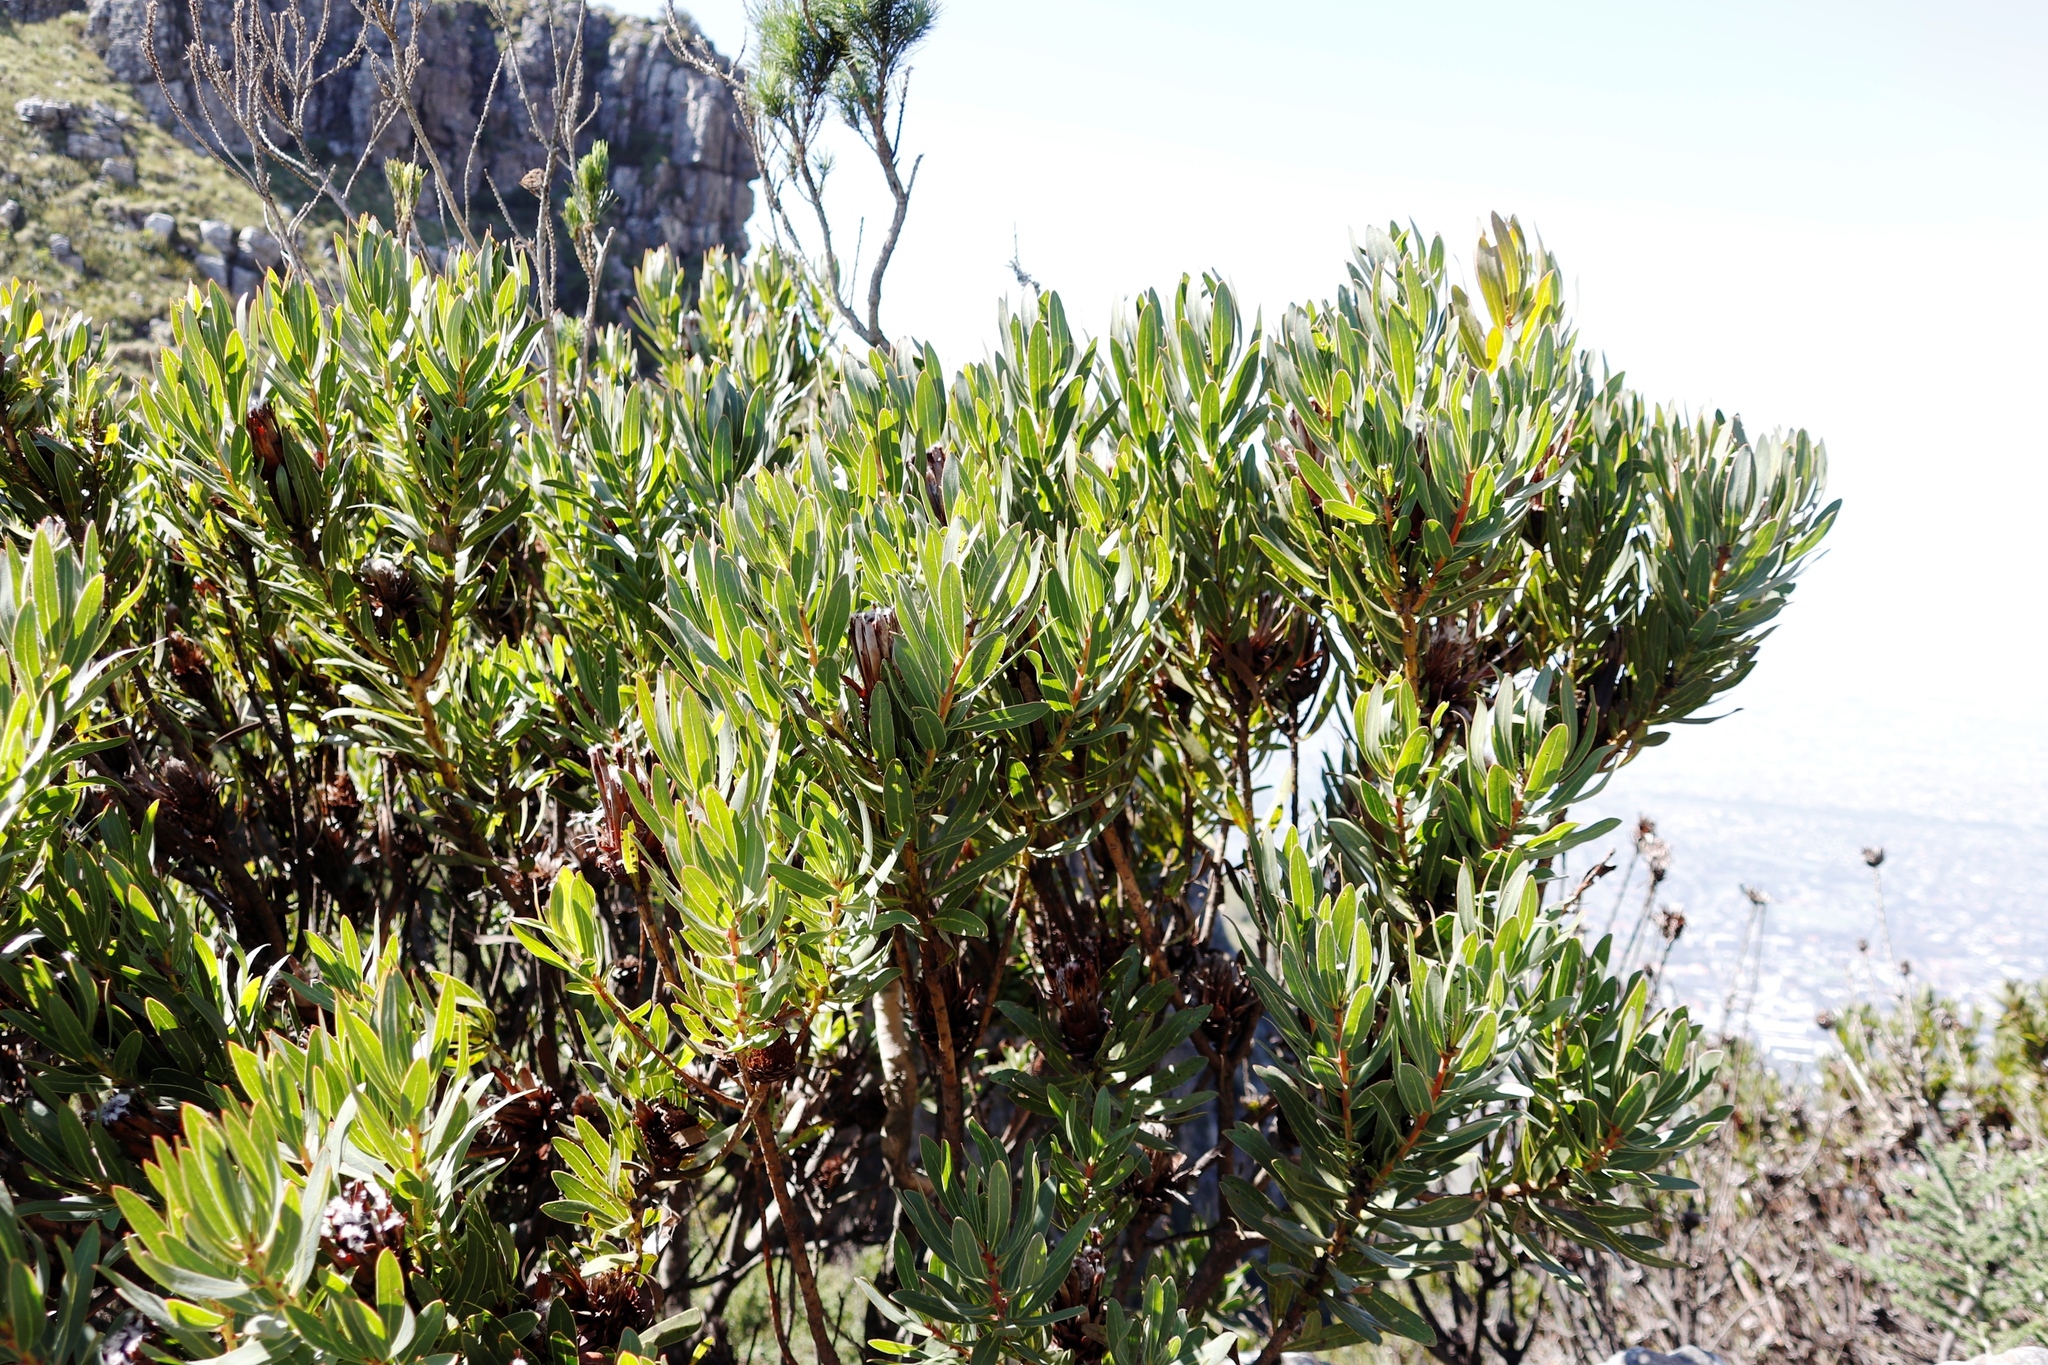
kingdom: Plantae
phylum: Tracheophyta
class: Magnoliopsida
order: Proteales
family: Proteaceae
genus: Protea
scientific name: Protea lepidocarpodendron
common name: Black-bearded protea
